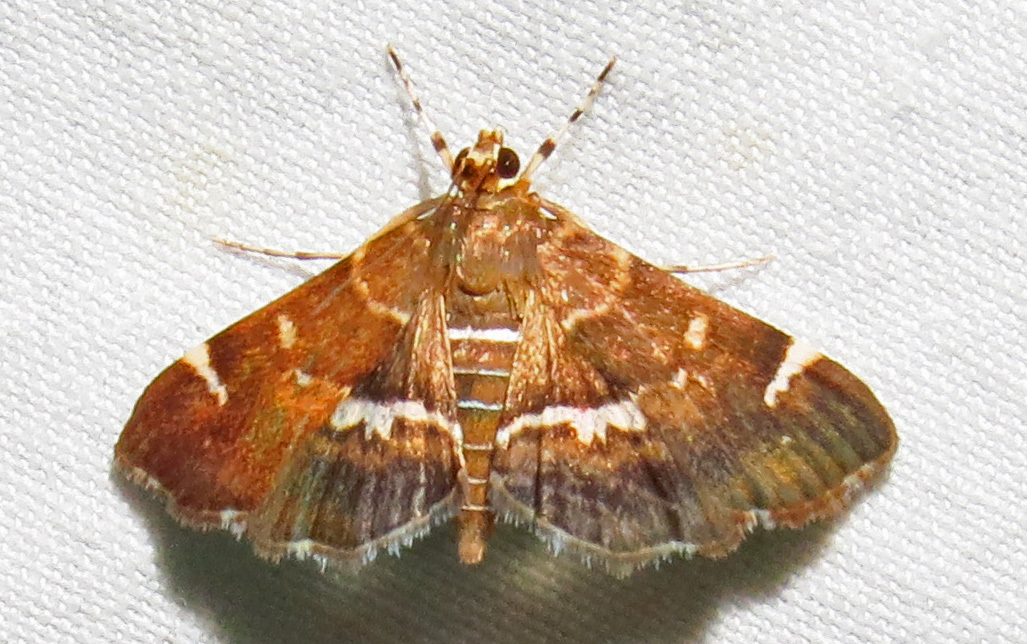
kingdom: Animalia
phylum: Arthropoda
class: Insecta
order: Lepidoptera
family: Crambidae
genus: Hymenia
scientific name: Hymenia perspectalis
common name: Spotted beet webworm
